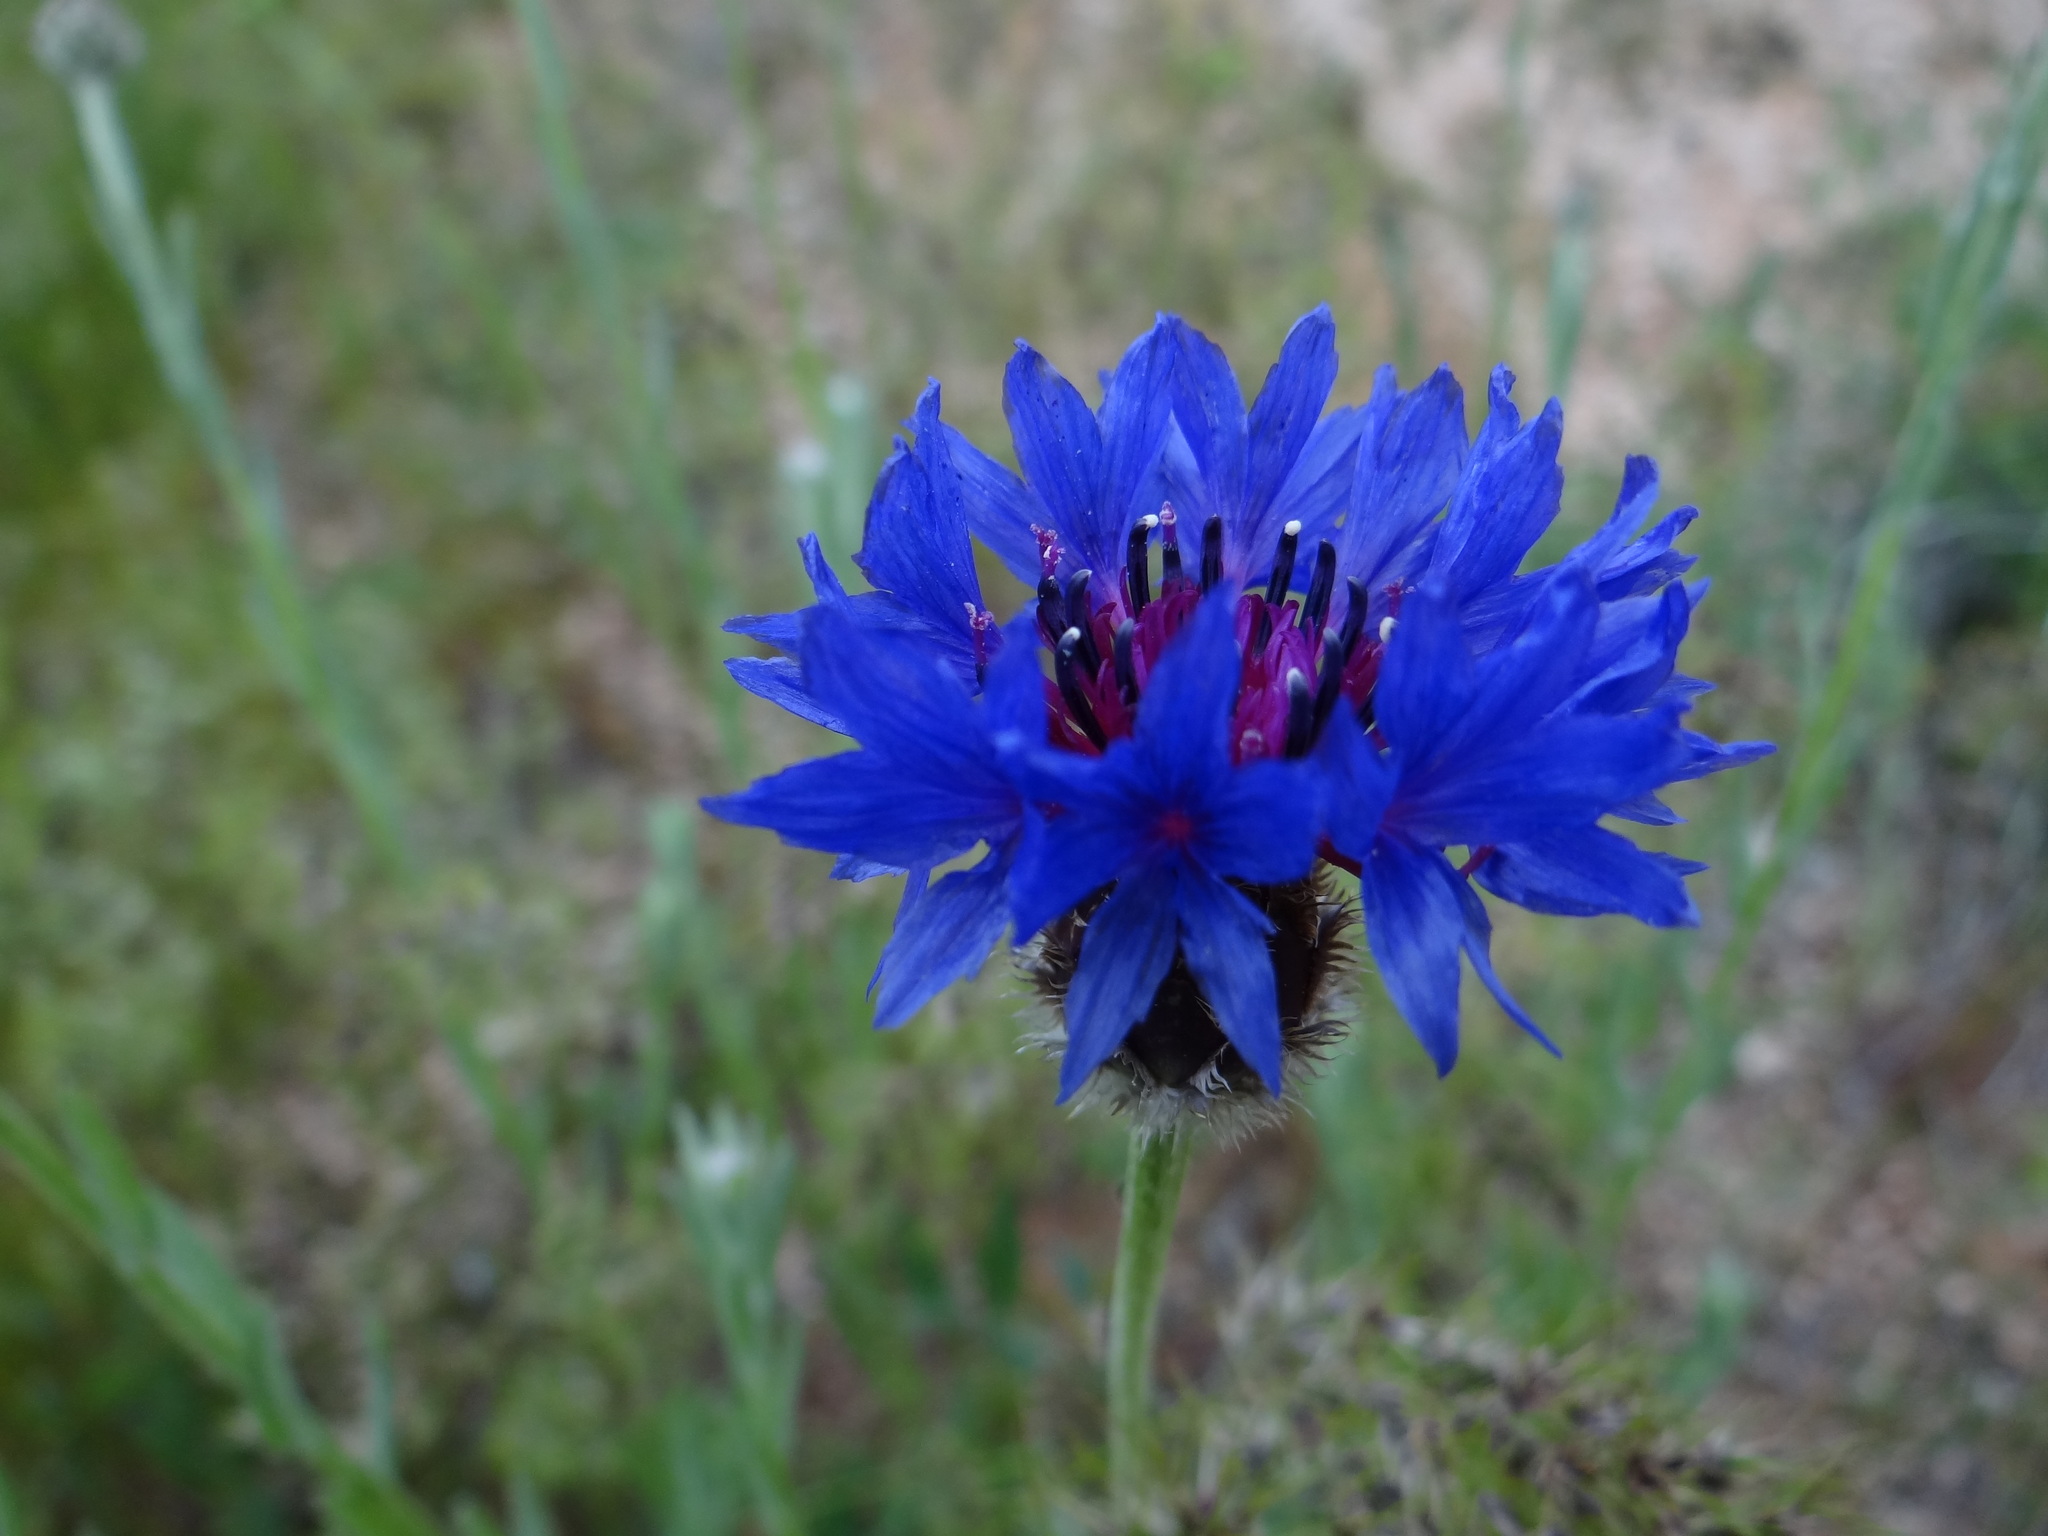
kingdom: Plantae
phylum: Tracheophyta
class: Magnoliopsida
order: Asterales
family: Asteraceae
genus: Centaurea
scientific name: Centaurea cyanus
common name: Cornflower
